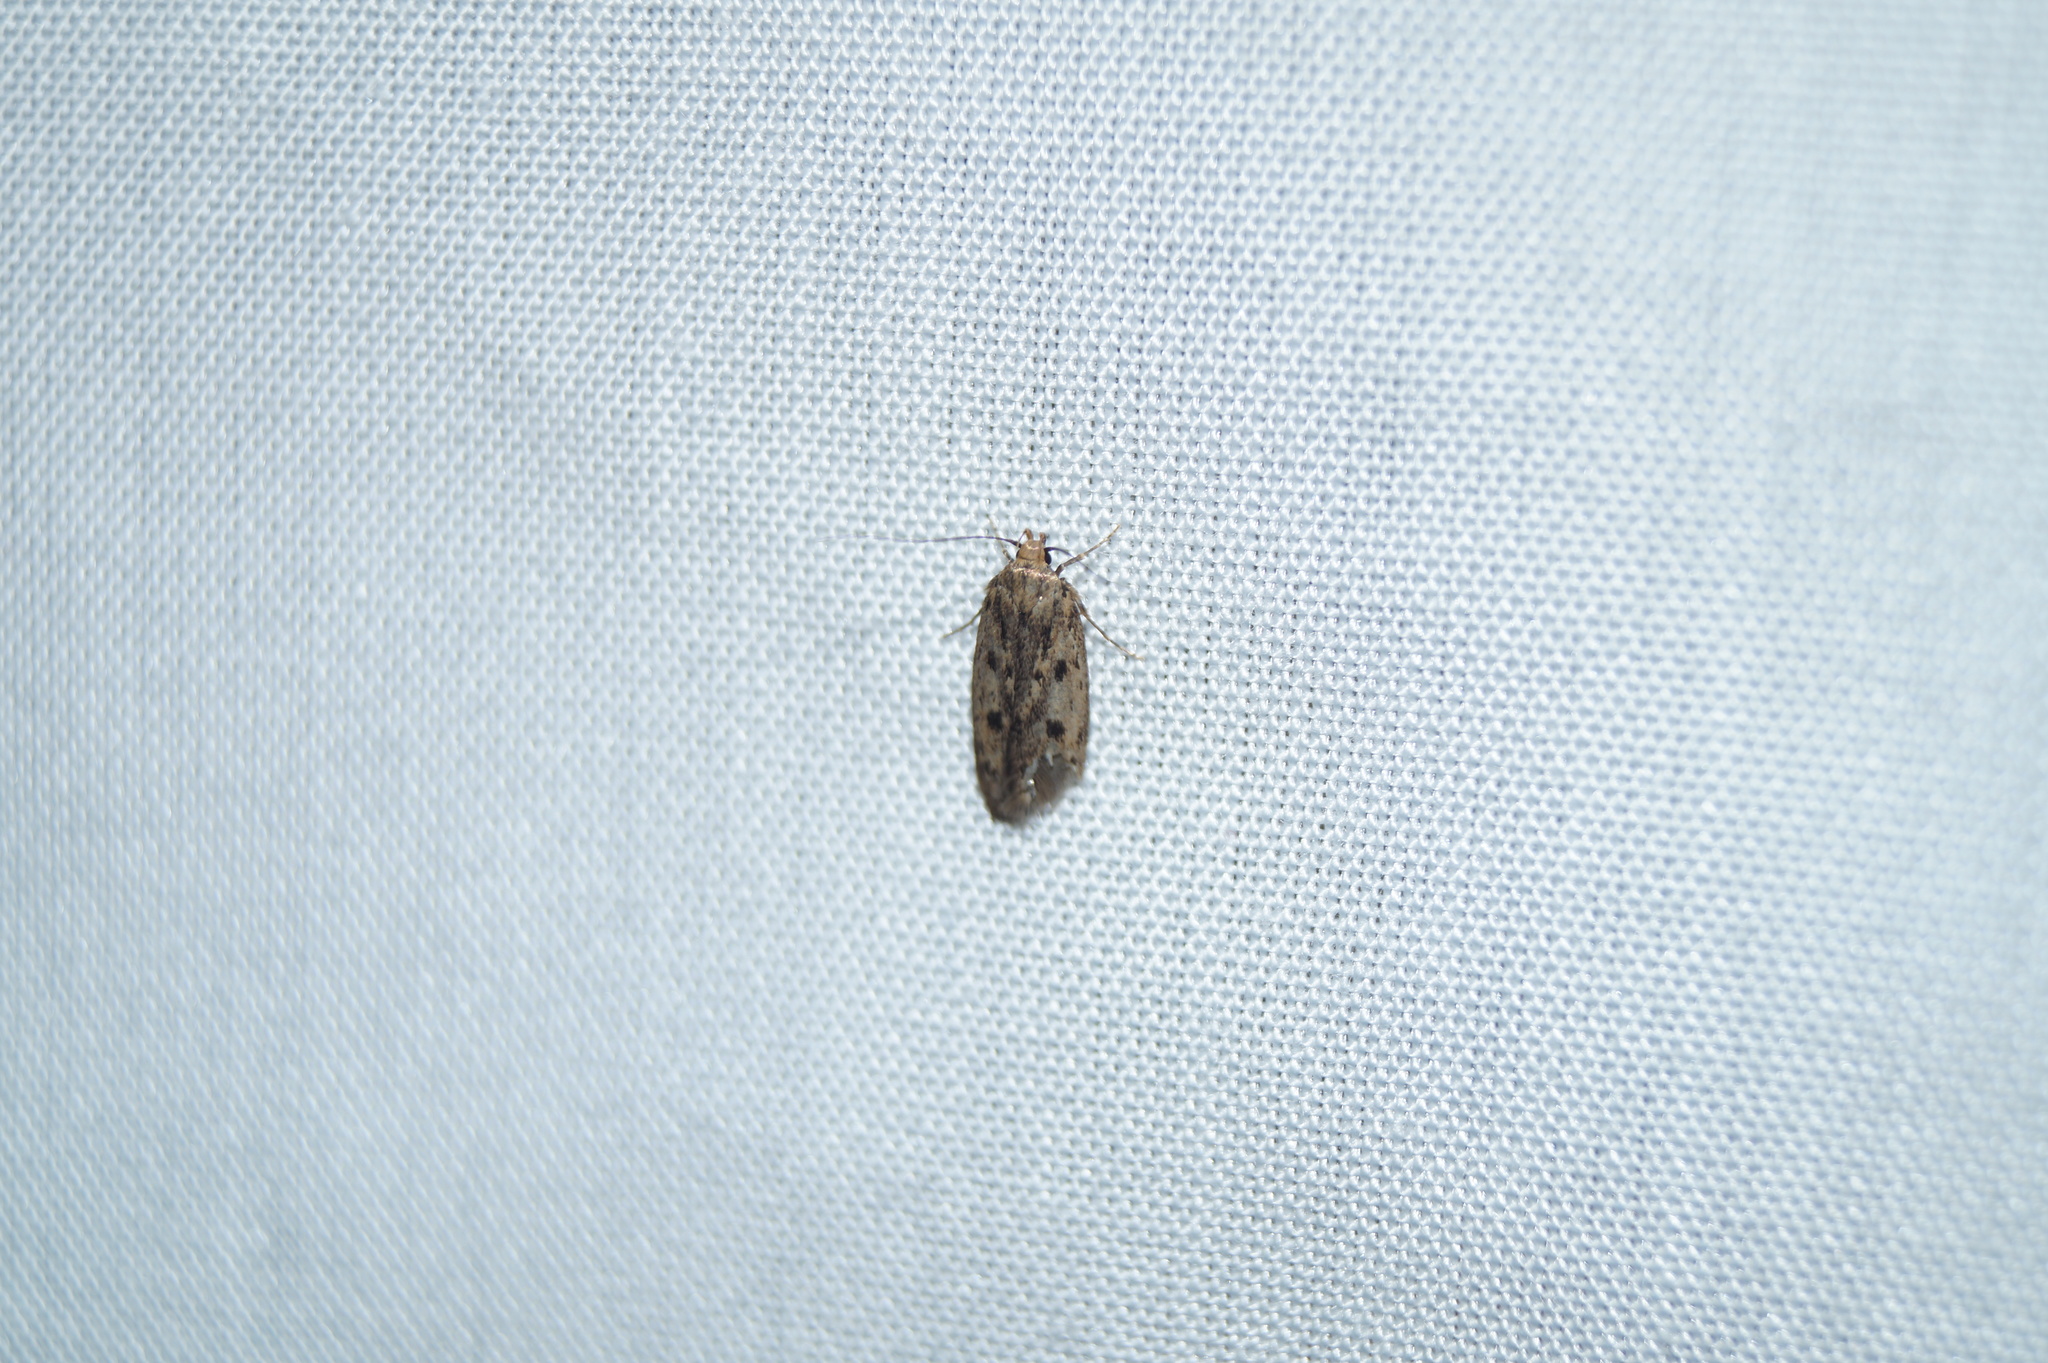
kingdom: Animalia
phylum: Arthropoda
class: Insecta
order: Lepidoptera
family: Oecophoridae
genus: Hofmannophila
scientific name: Hofmannophila pseudospretella
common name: Brown house moth
